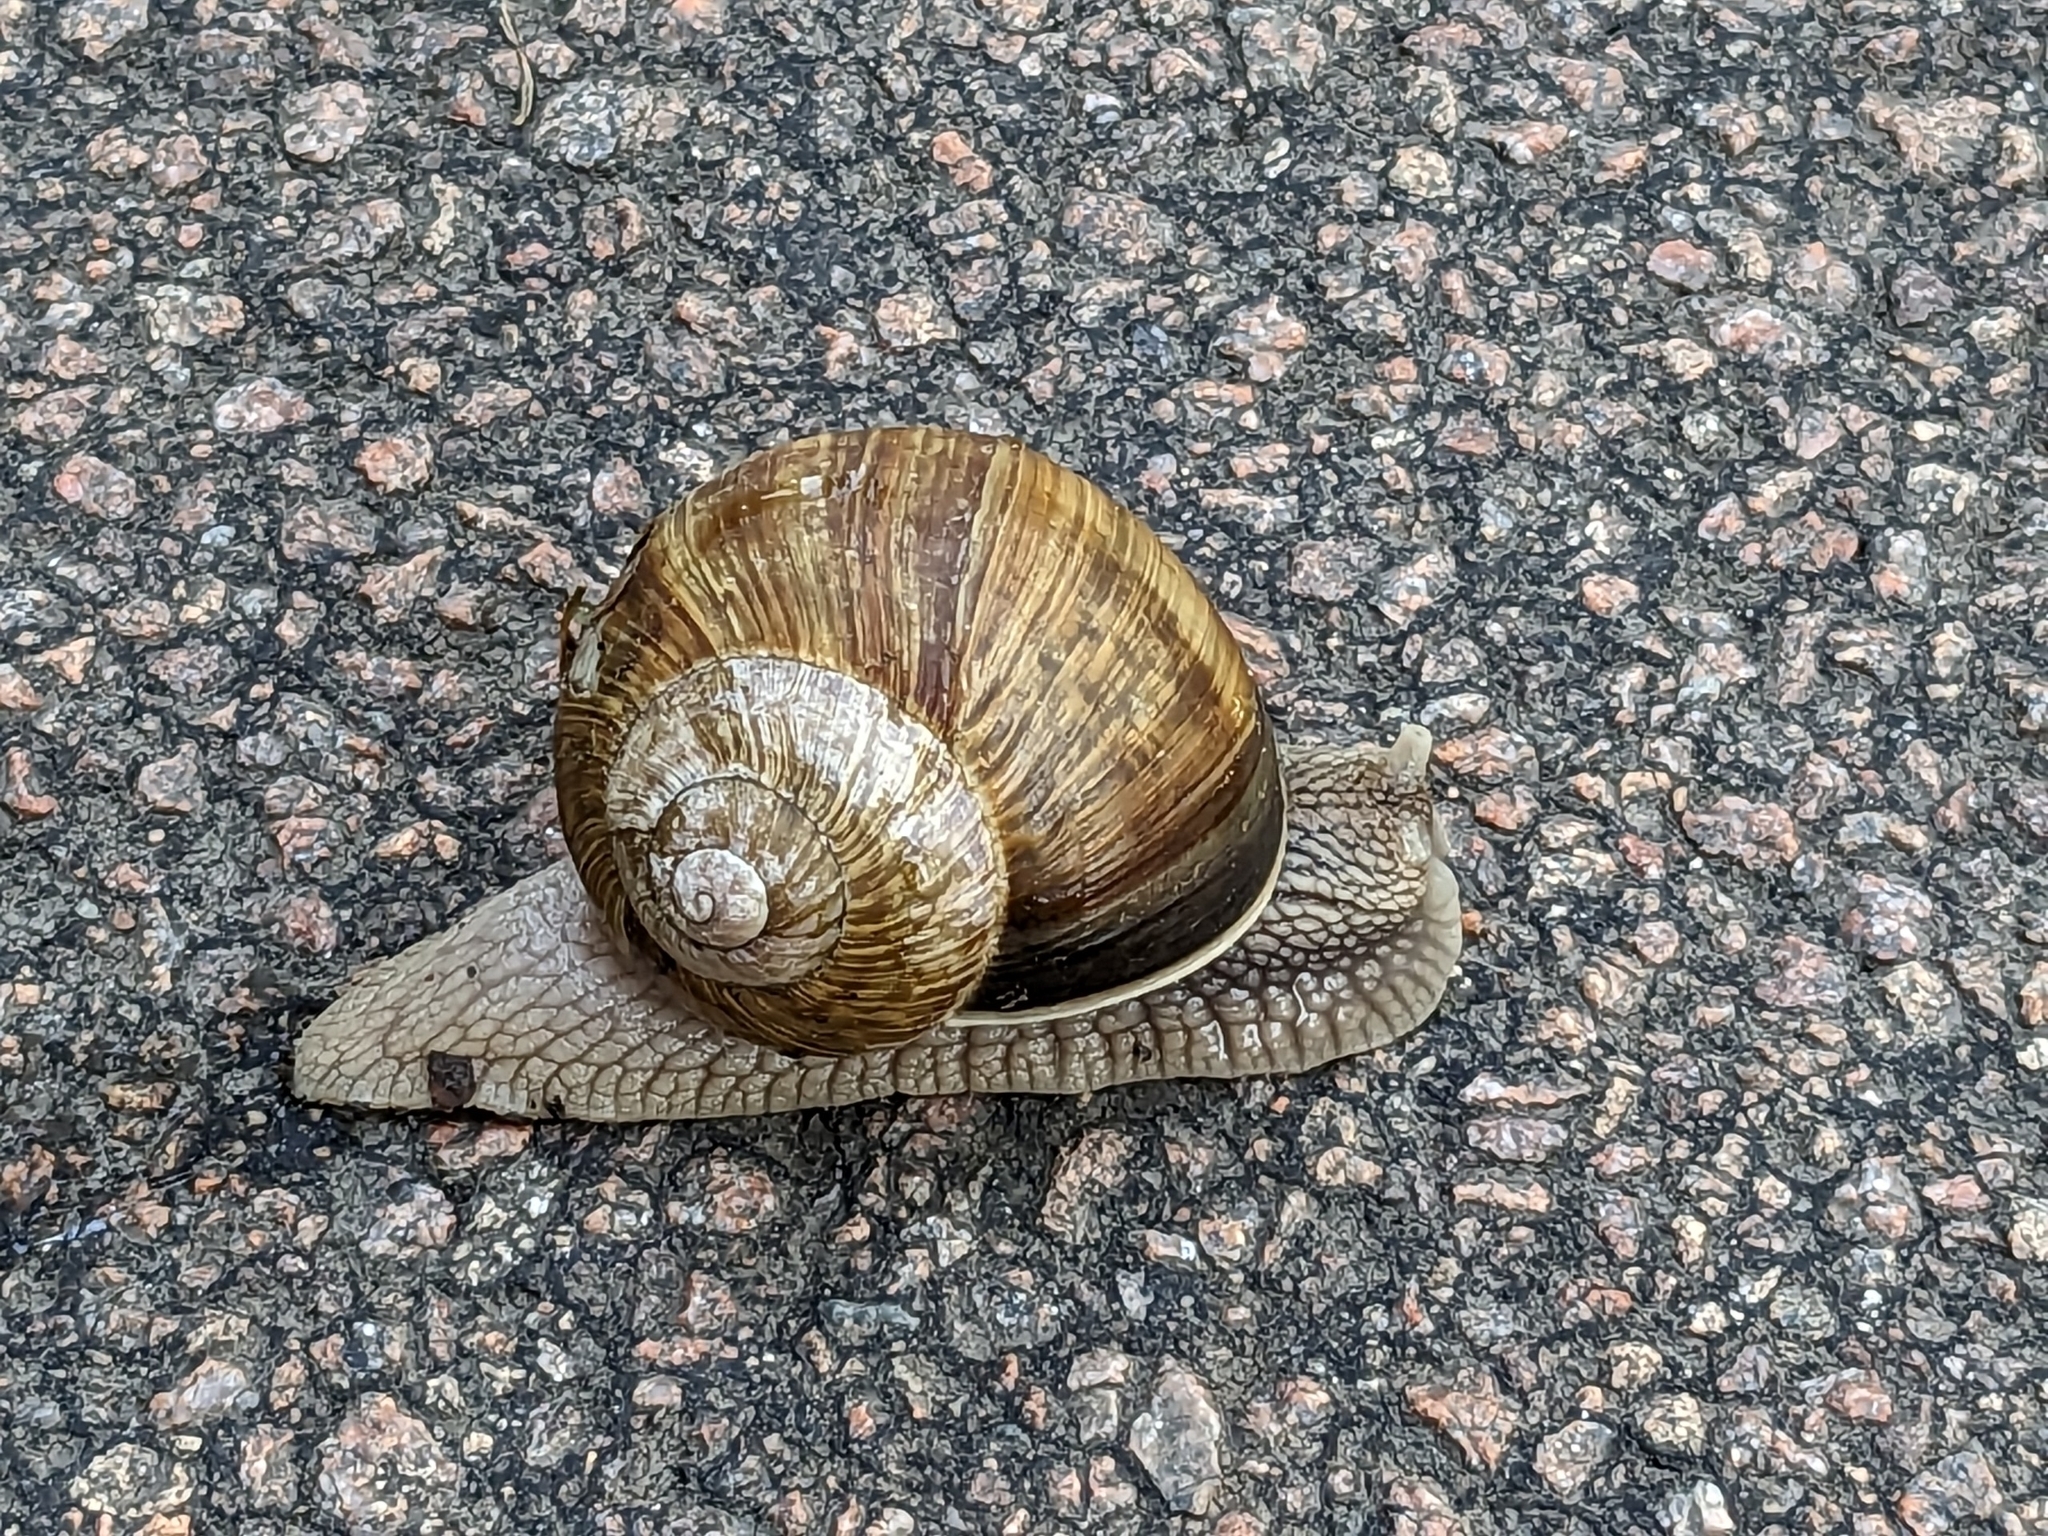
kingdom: Animalia
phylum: Mollusca
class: Gastropoda
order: Stylommatophora
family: Helicidae
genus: Helix
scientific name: Helix pomatia
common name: Roman snail
